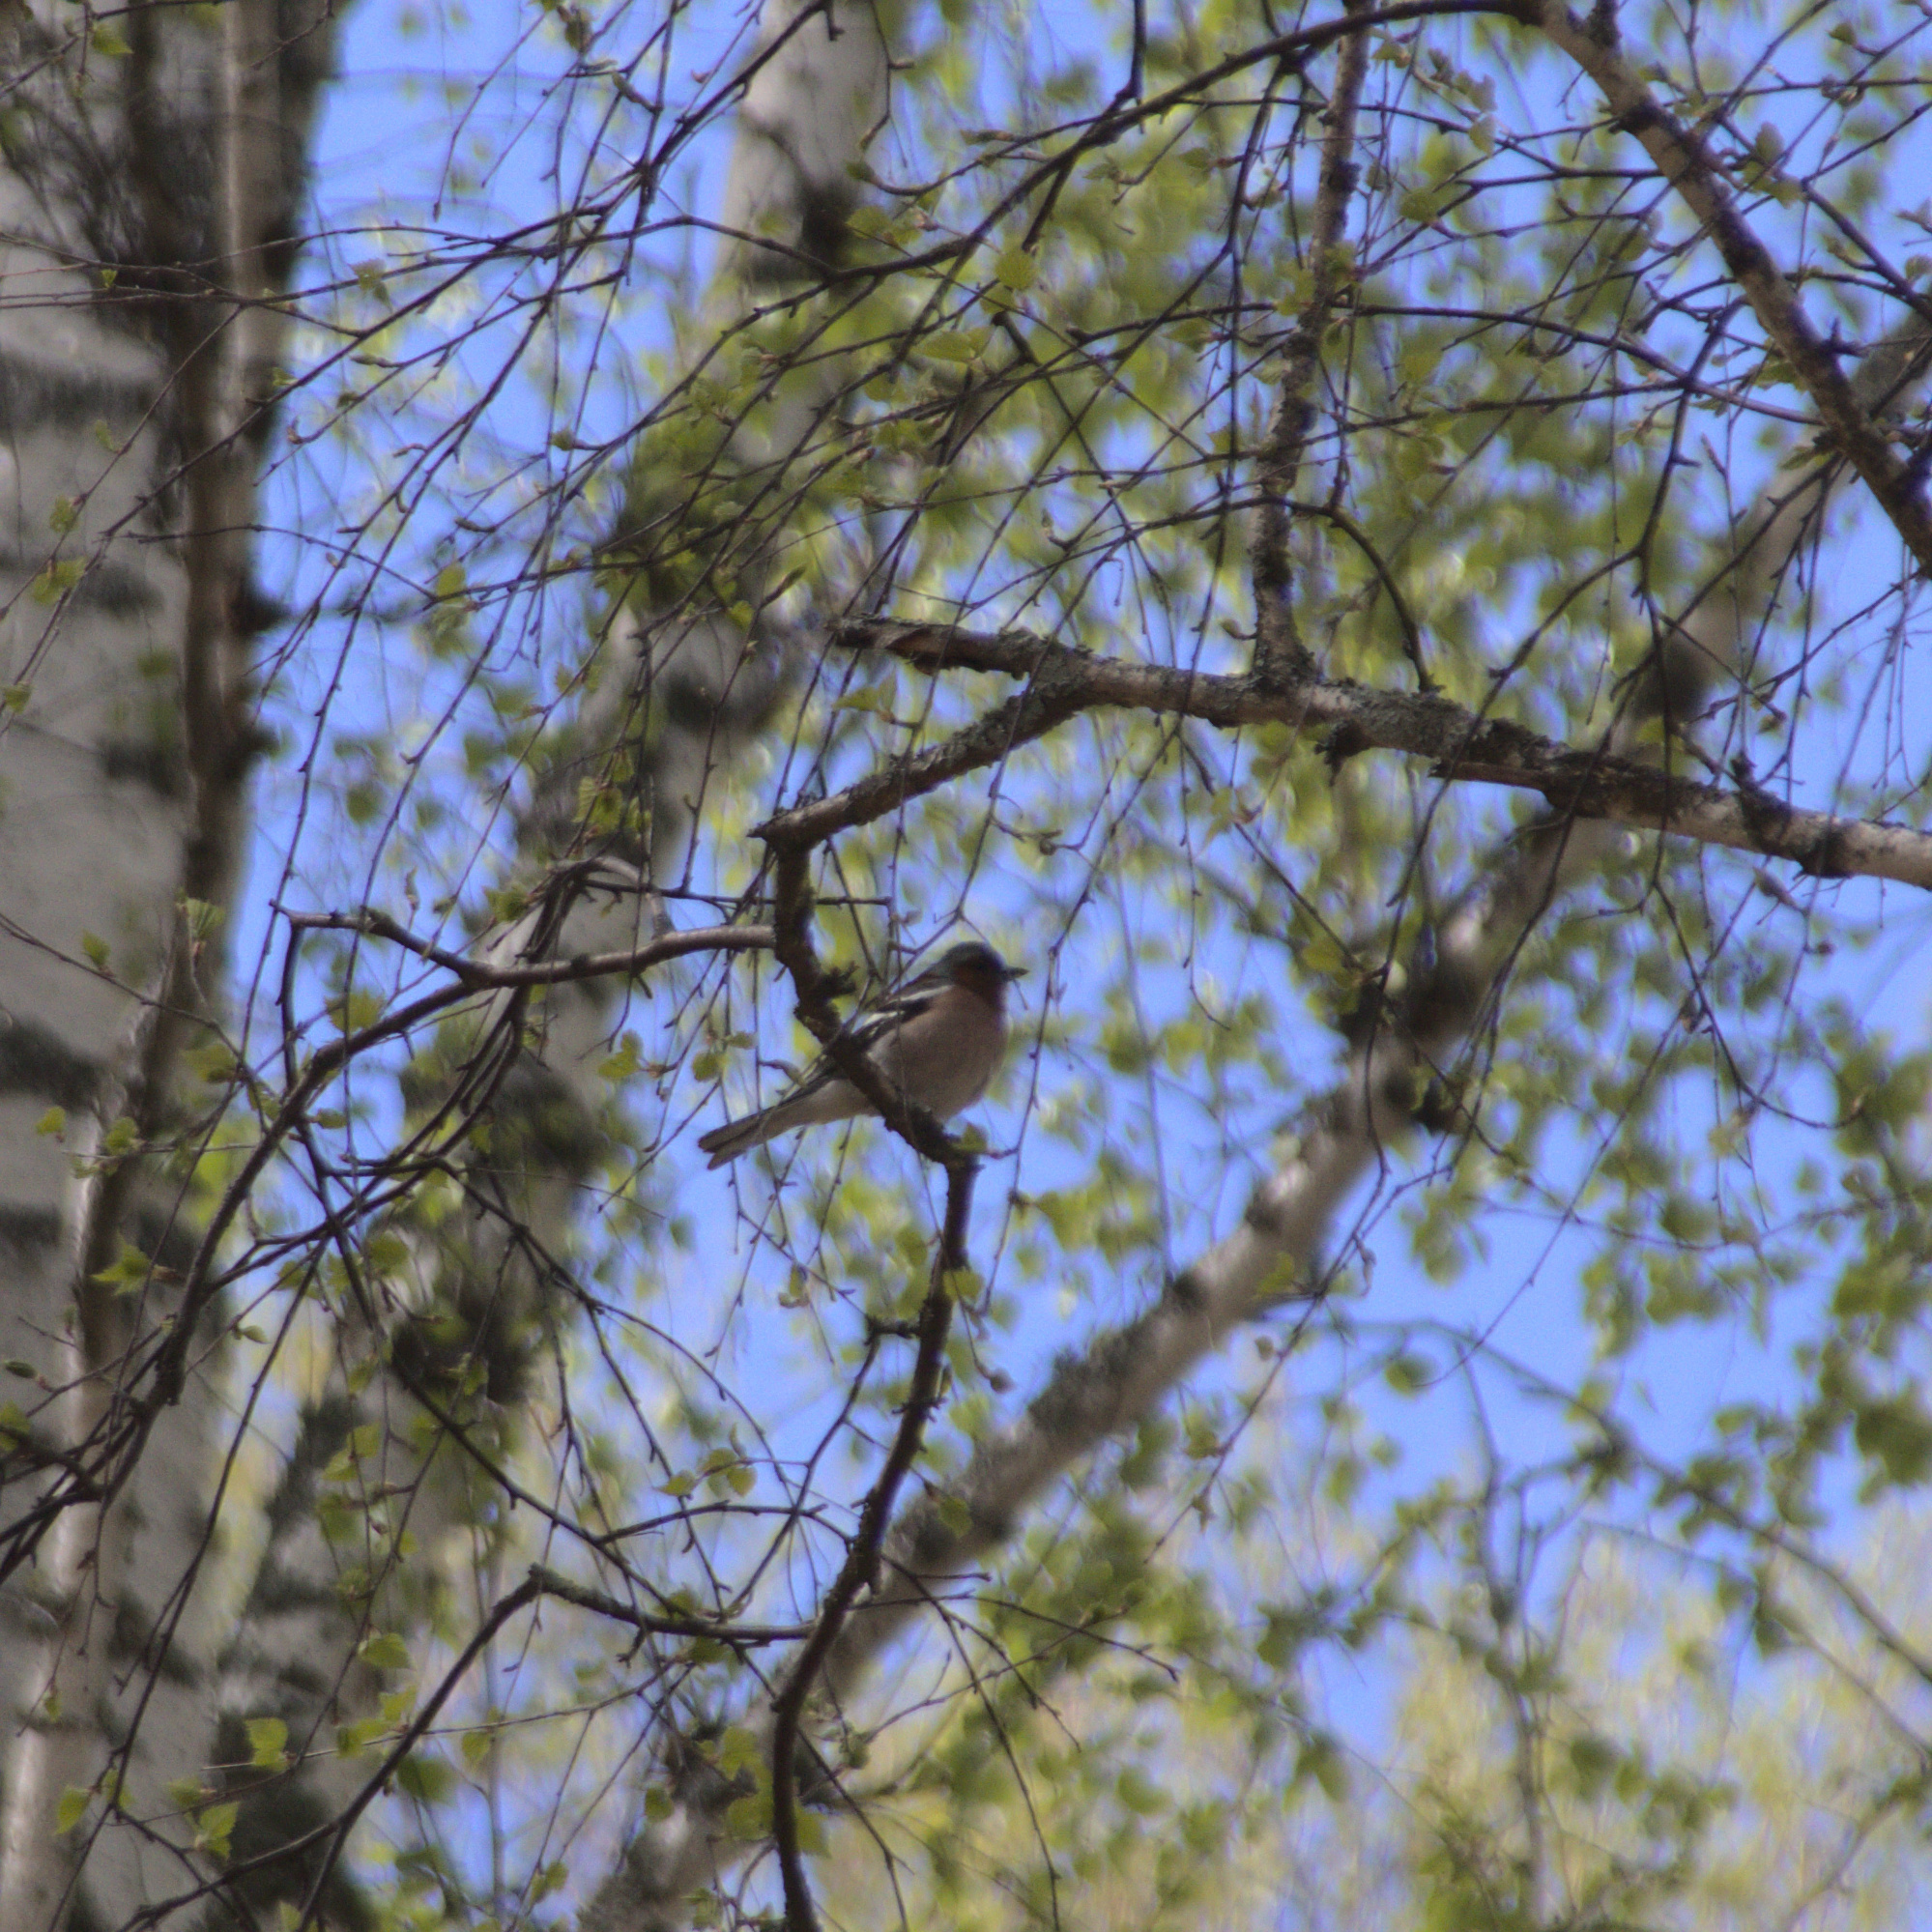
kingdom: Animalia
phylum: Chordata
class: Aves
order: Passeriformes
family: Fringillidae
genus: Fringilla
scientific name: Fringilla coelebs
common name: Common chaffinch
